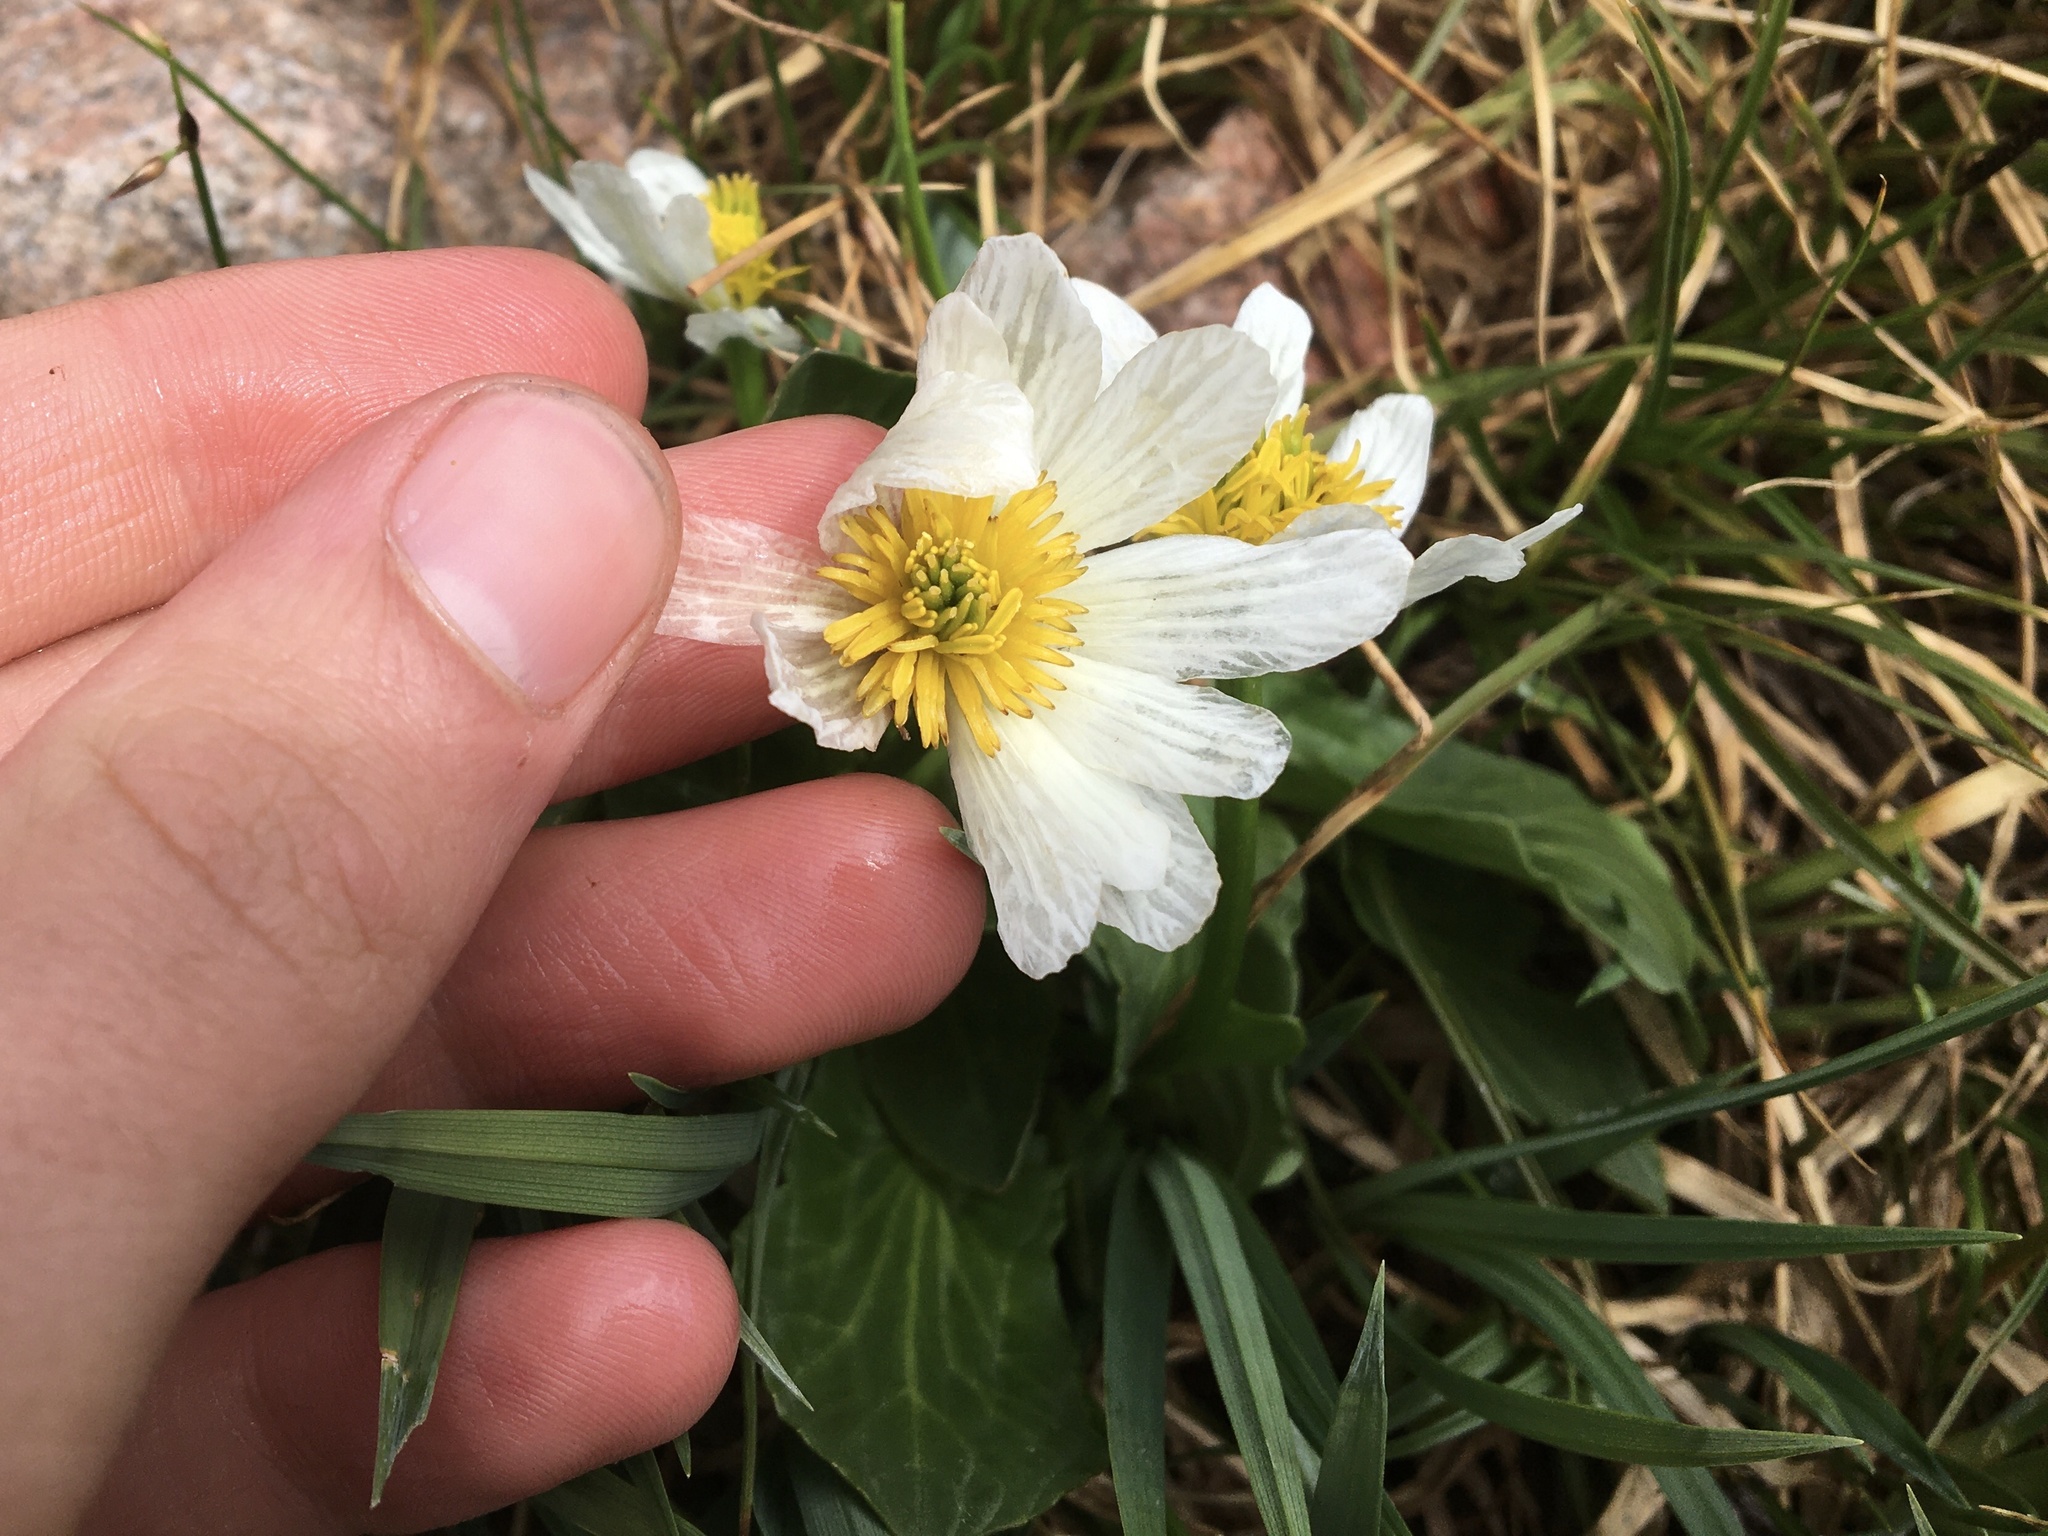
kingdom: Plantae
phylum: Tracheophyta
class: Magnoliopsida
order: Ranunculales
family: Ranunculaceae
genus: Caltha
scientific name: Caltha leptosepala
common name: Elkslip
